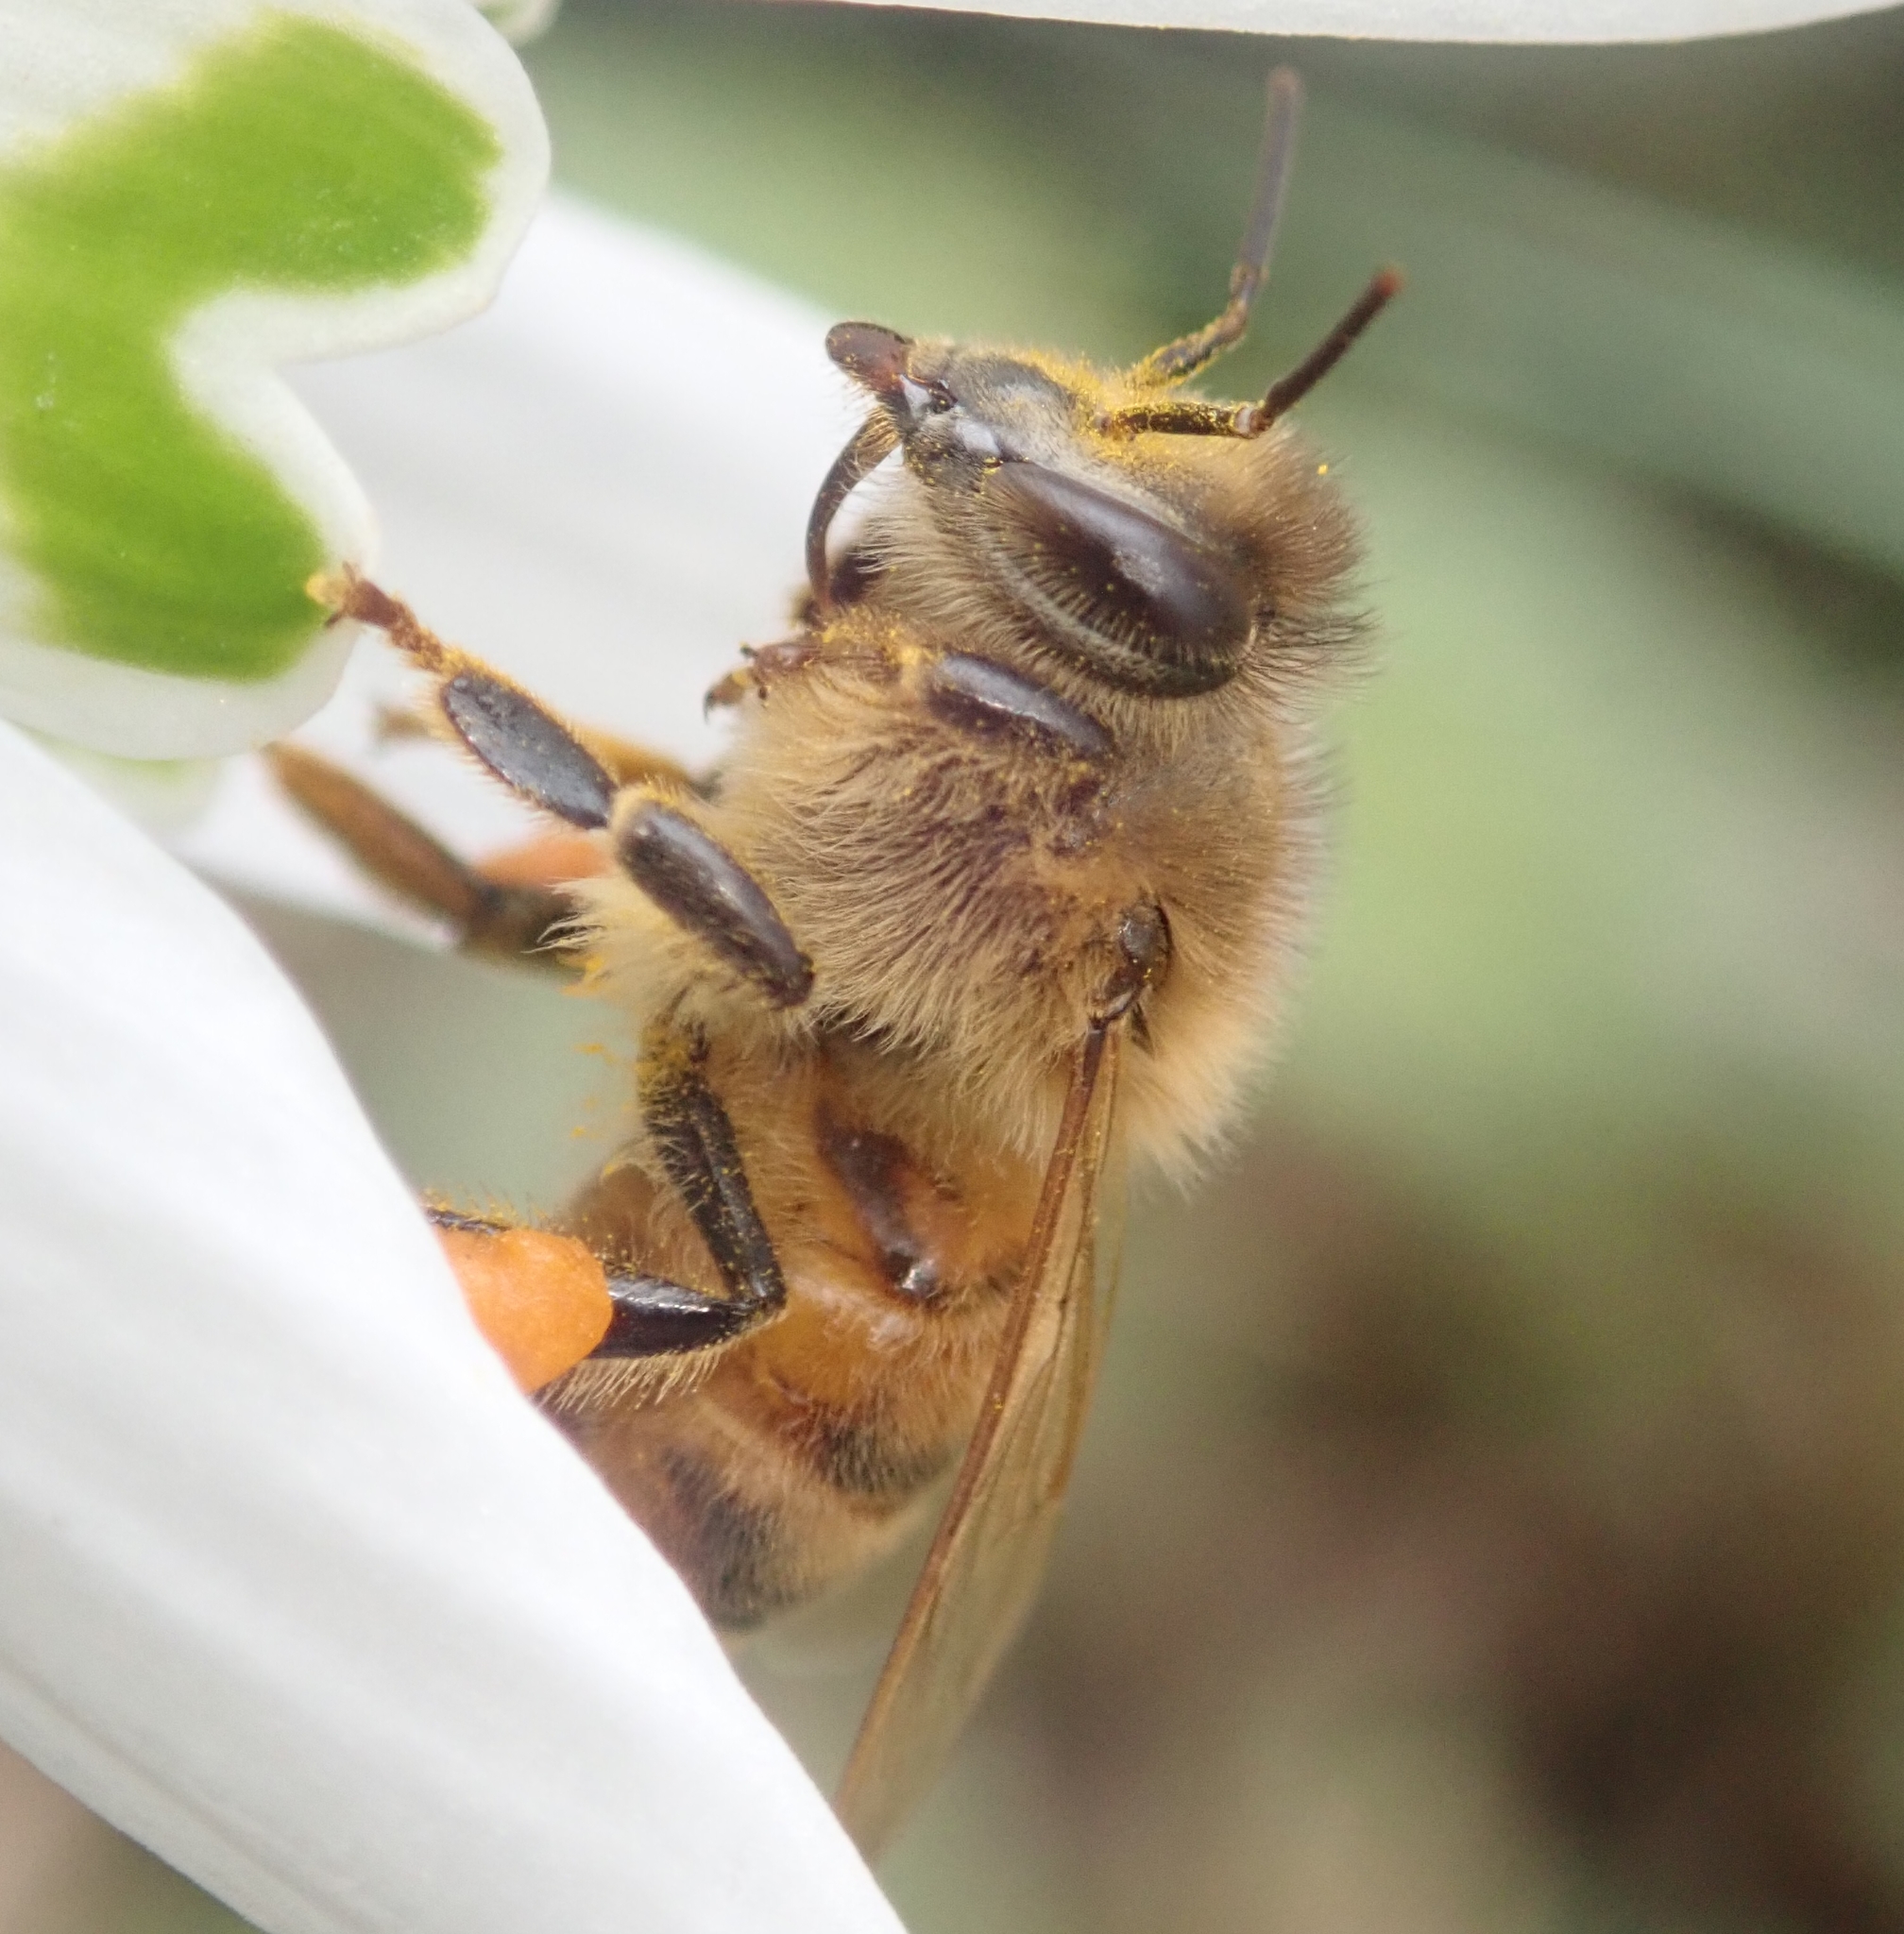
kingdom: Animalia
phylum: Arthropoda
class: Insecta
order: Hymenoptera
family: Apidae
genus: Apis
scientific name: Apis mellifera
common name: Honey bee
